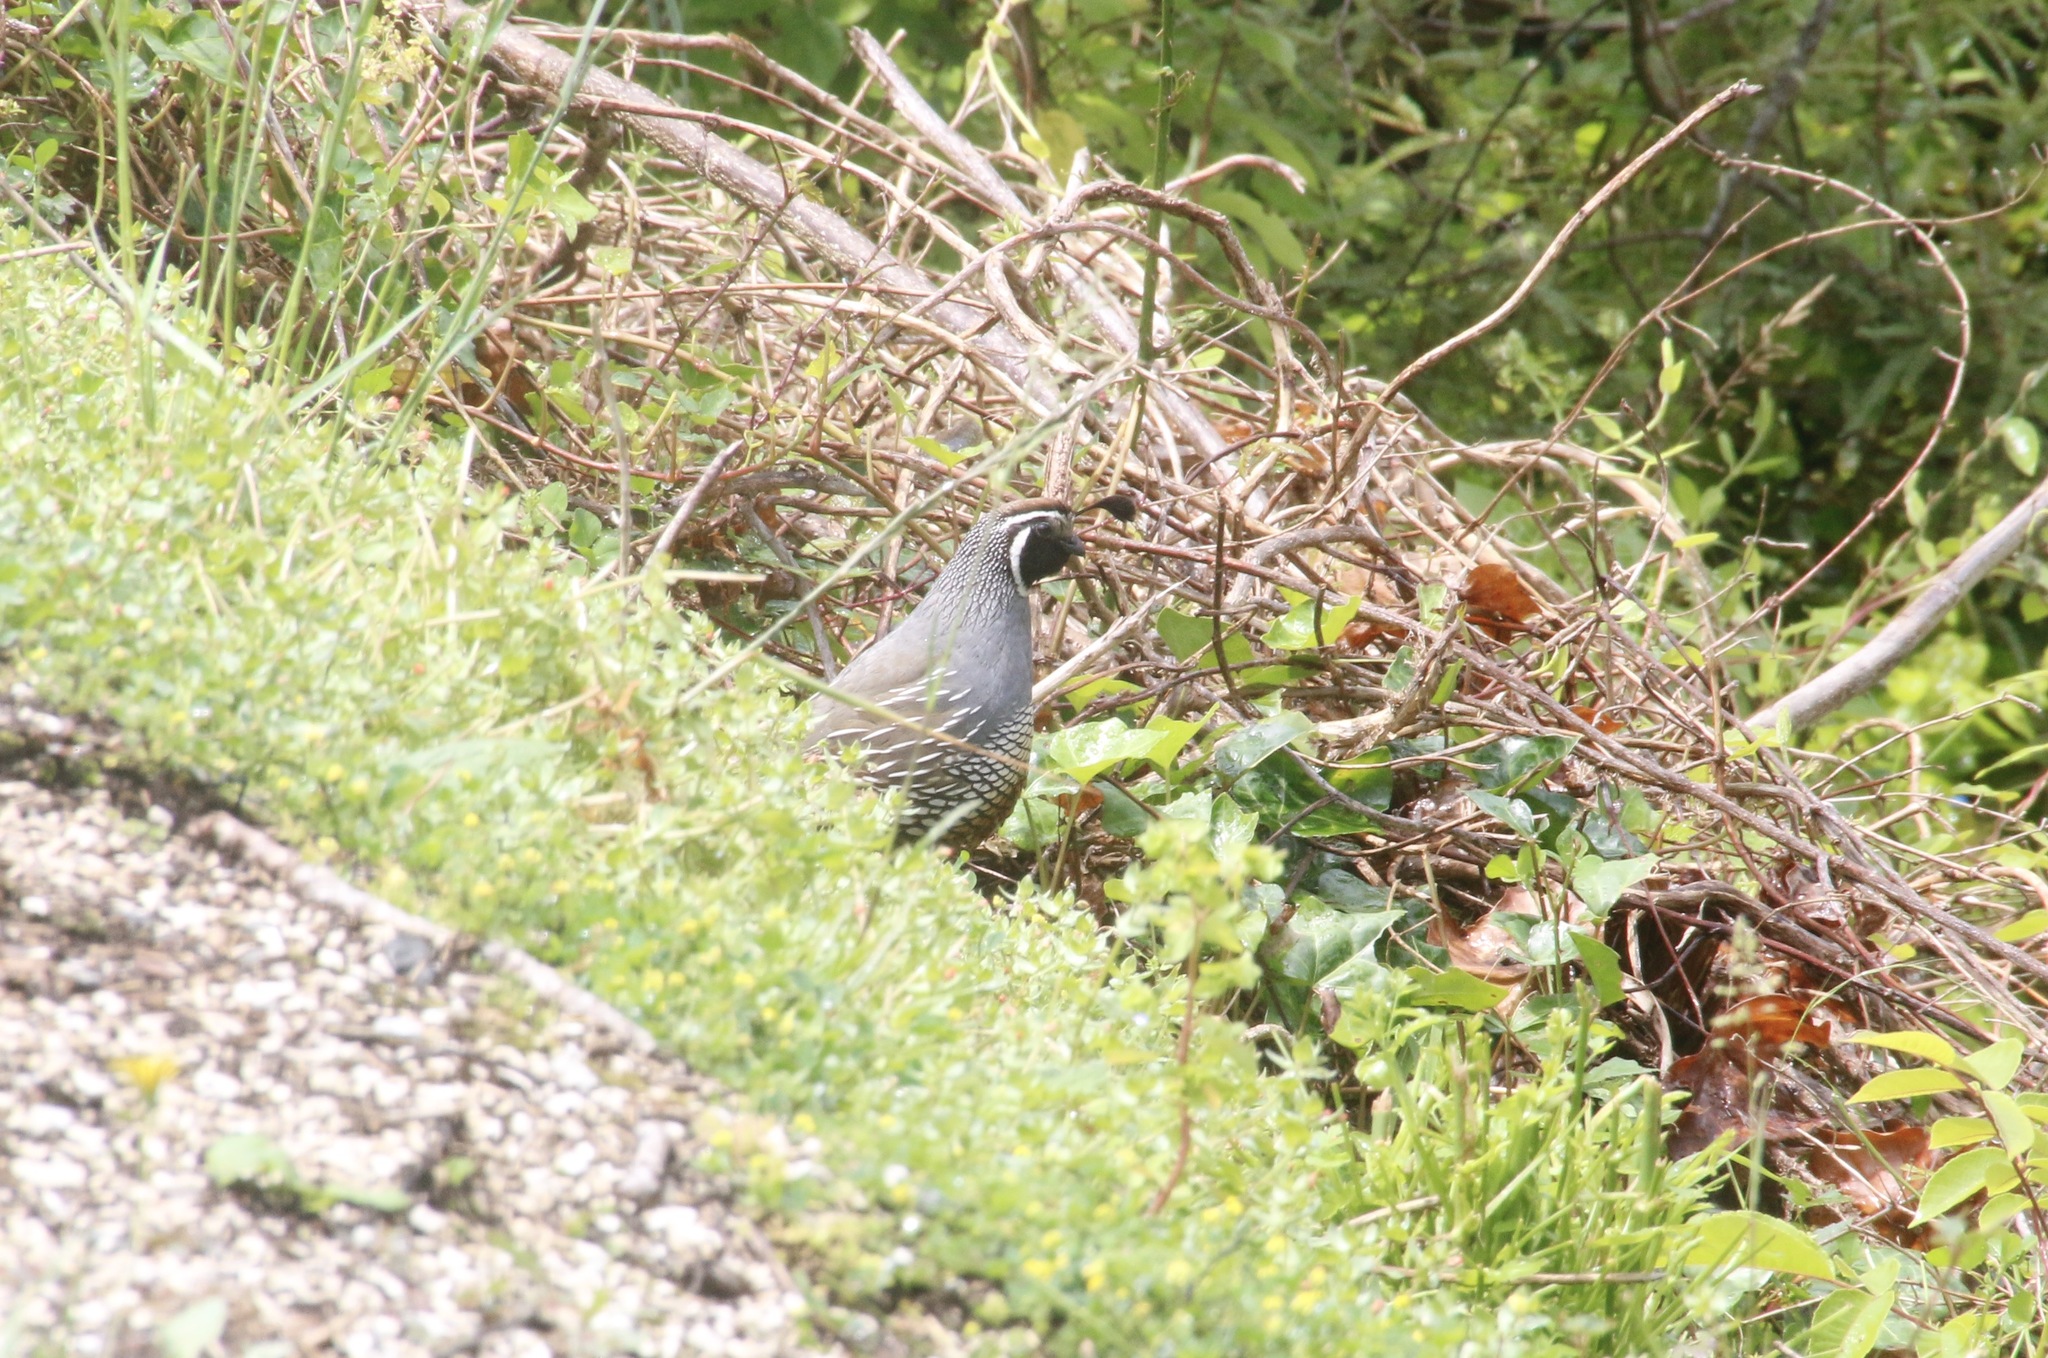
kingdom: Animalia
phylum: Chordata
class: Aves
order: Galliformes
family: Odontophoridae
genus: Callipepla
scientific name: Callipepla californica
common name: California quail
